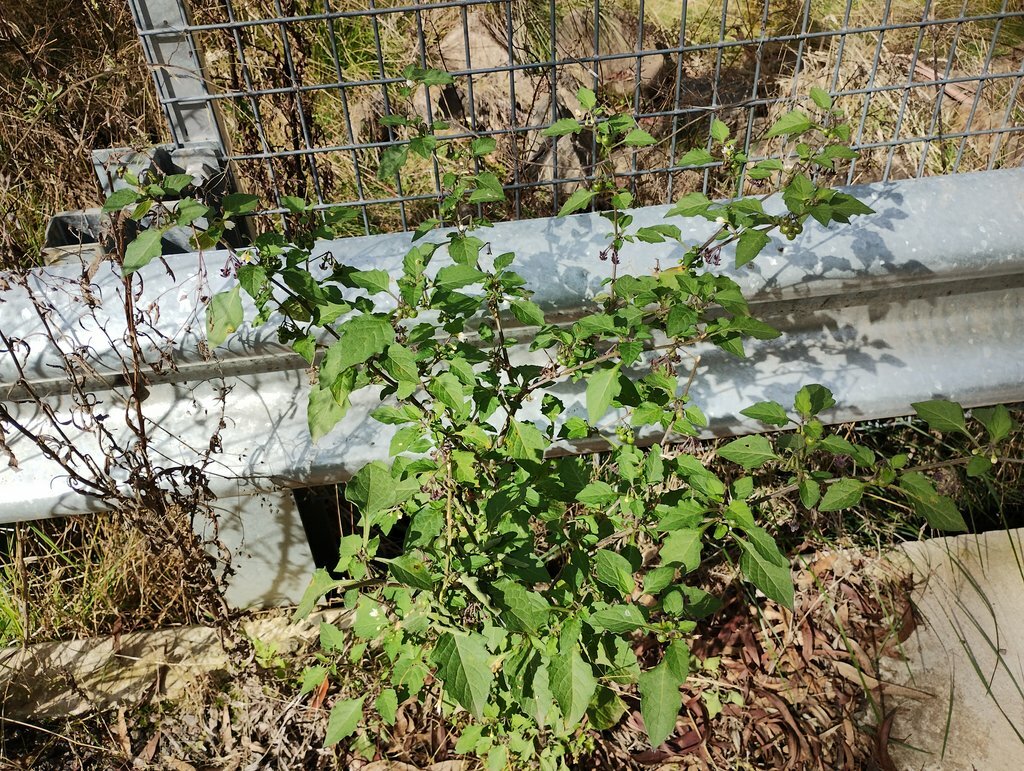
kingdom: Plantae
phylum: Tracheophyta
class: Magnoliopsida
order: Solanales
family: Solanaceae
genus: Solanum
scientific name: Solanum nigrum
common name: Black nightshade
